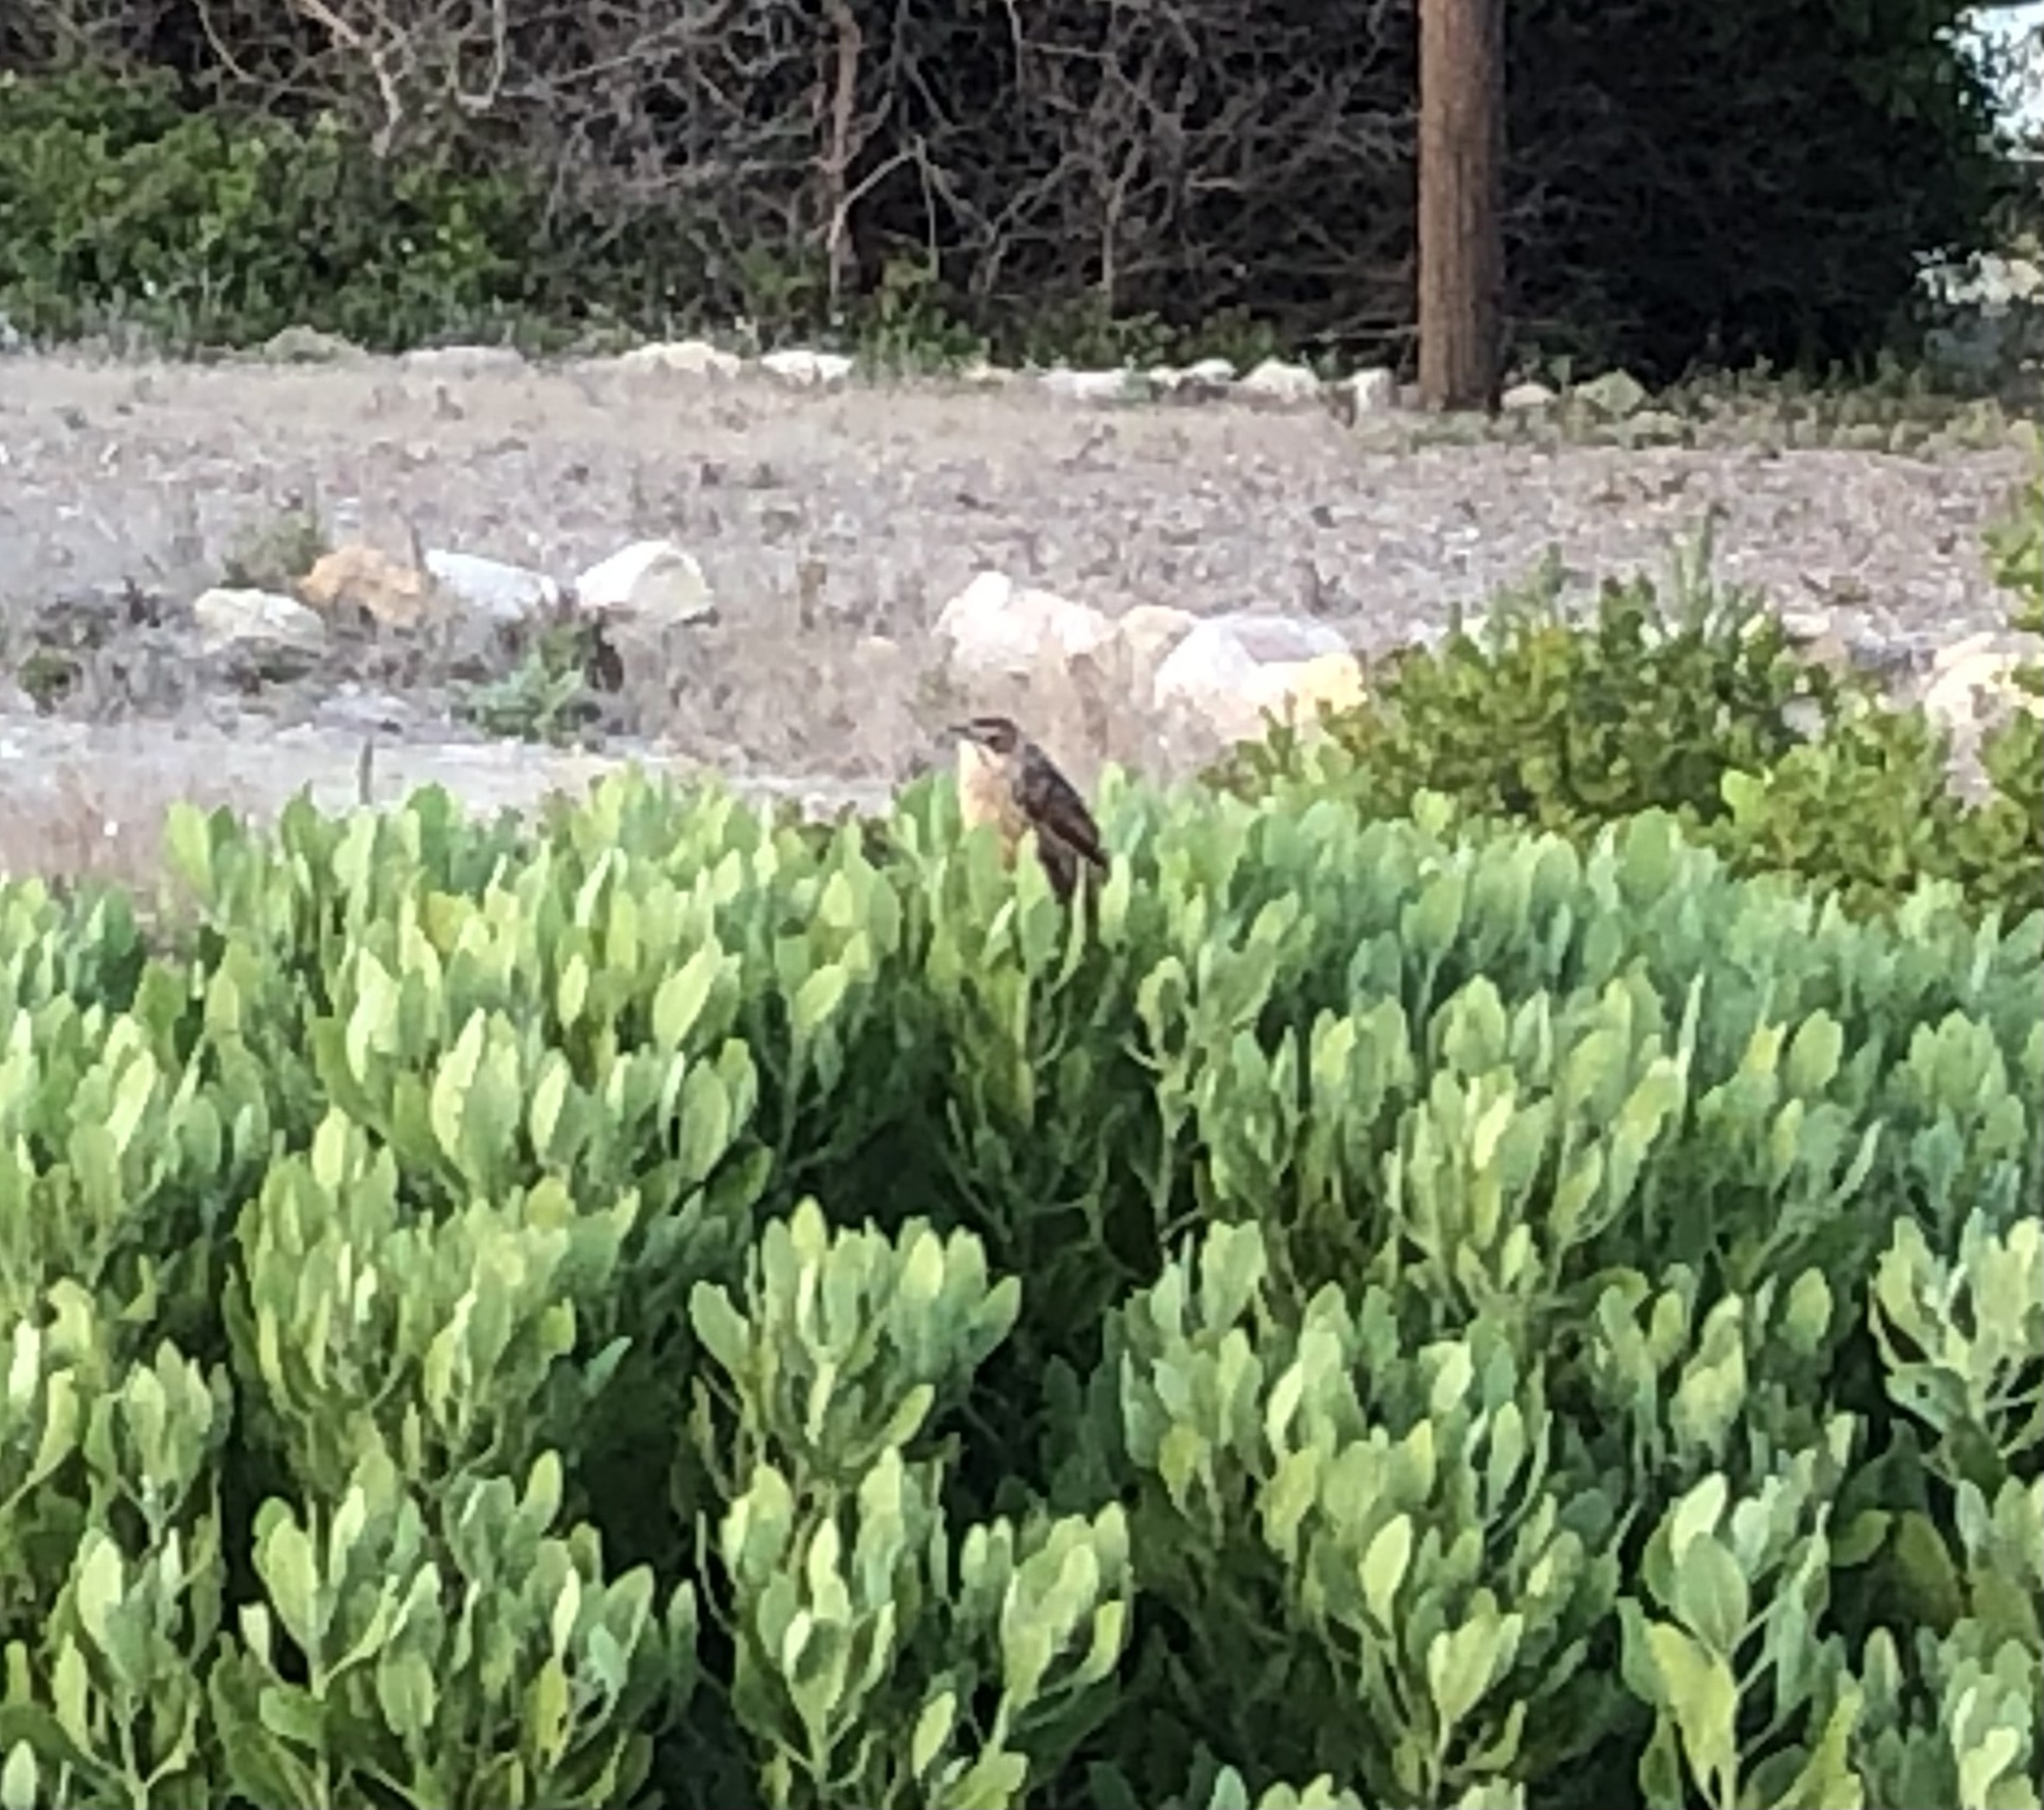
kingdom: Animalia
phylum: Chordata
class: Aves
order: Passeriformes
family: Macrosphenidae
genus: Sphenoeacus
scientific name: Sphenoeacus afer
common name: Cape grassbird
